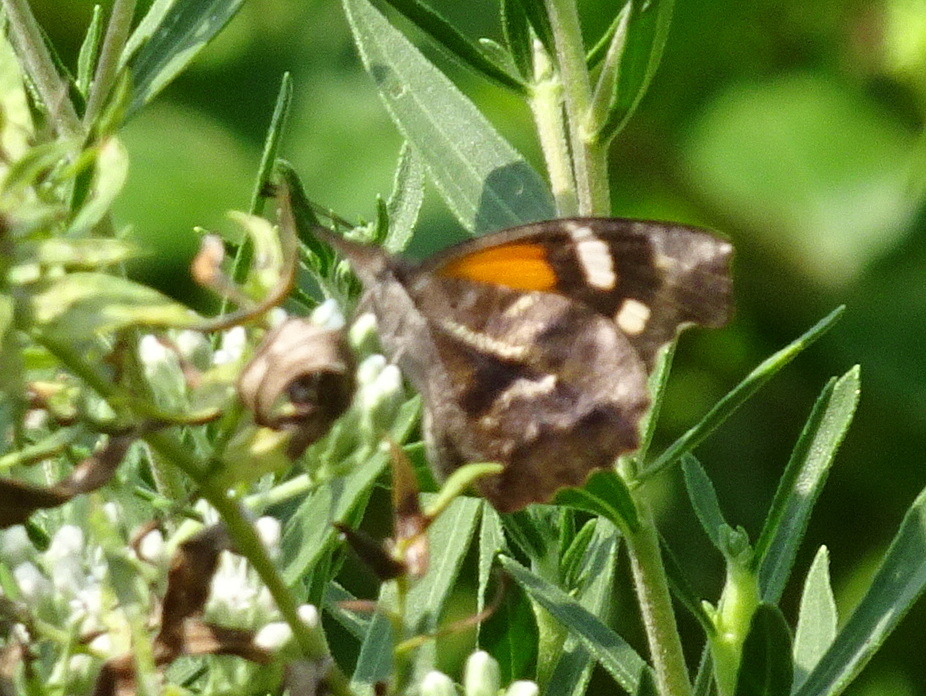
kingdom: Animalia
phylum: Arthropoda
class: Insecta
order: Lepidoptera
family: Nymphalidae
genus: Libytheana
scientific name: Libytheana carinenta
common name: American snout
